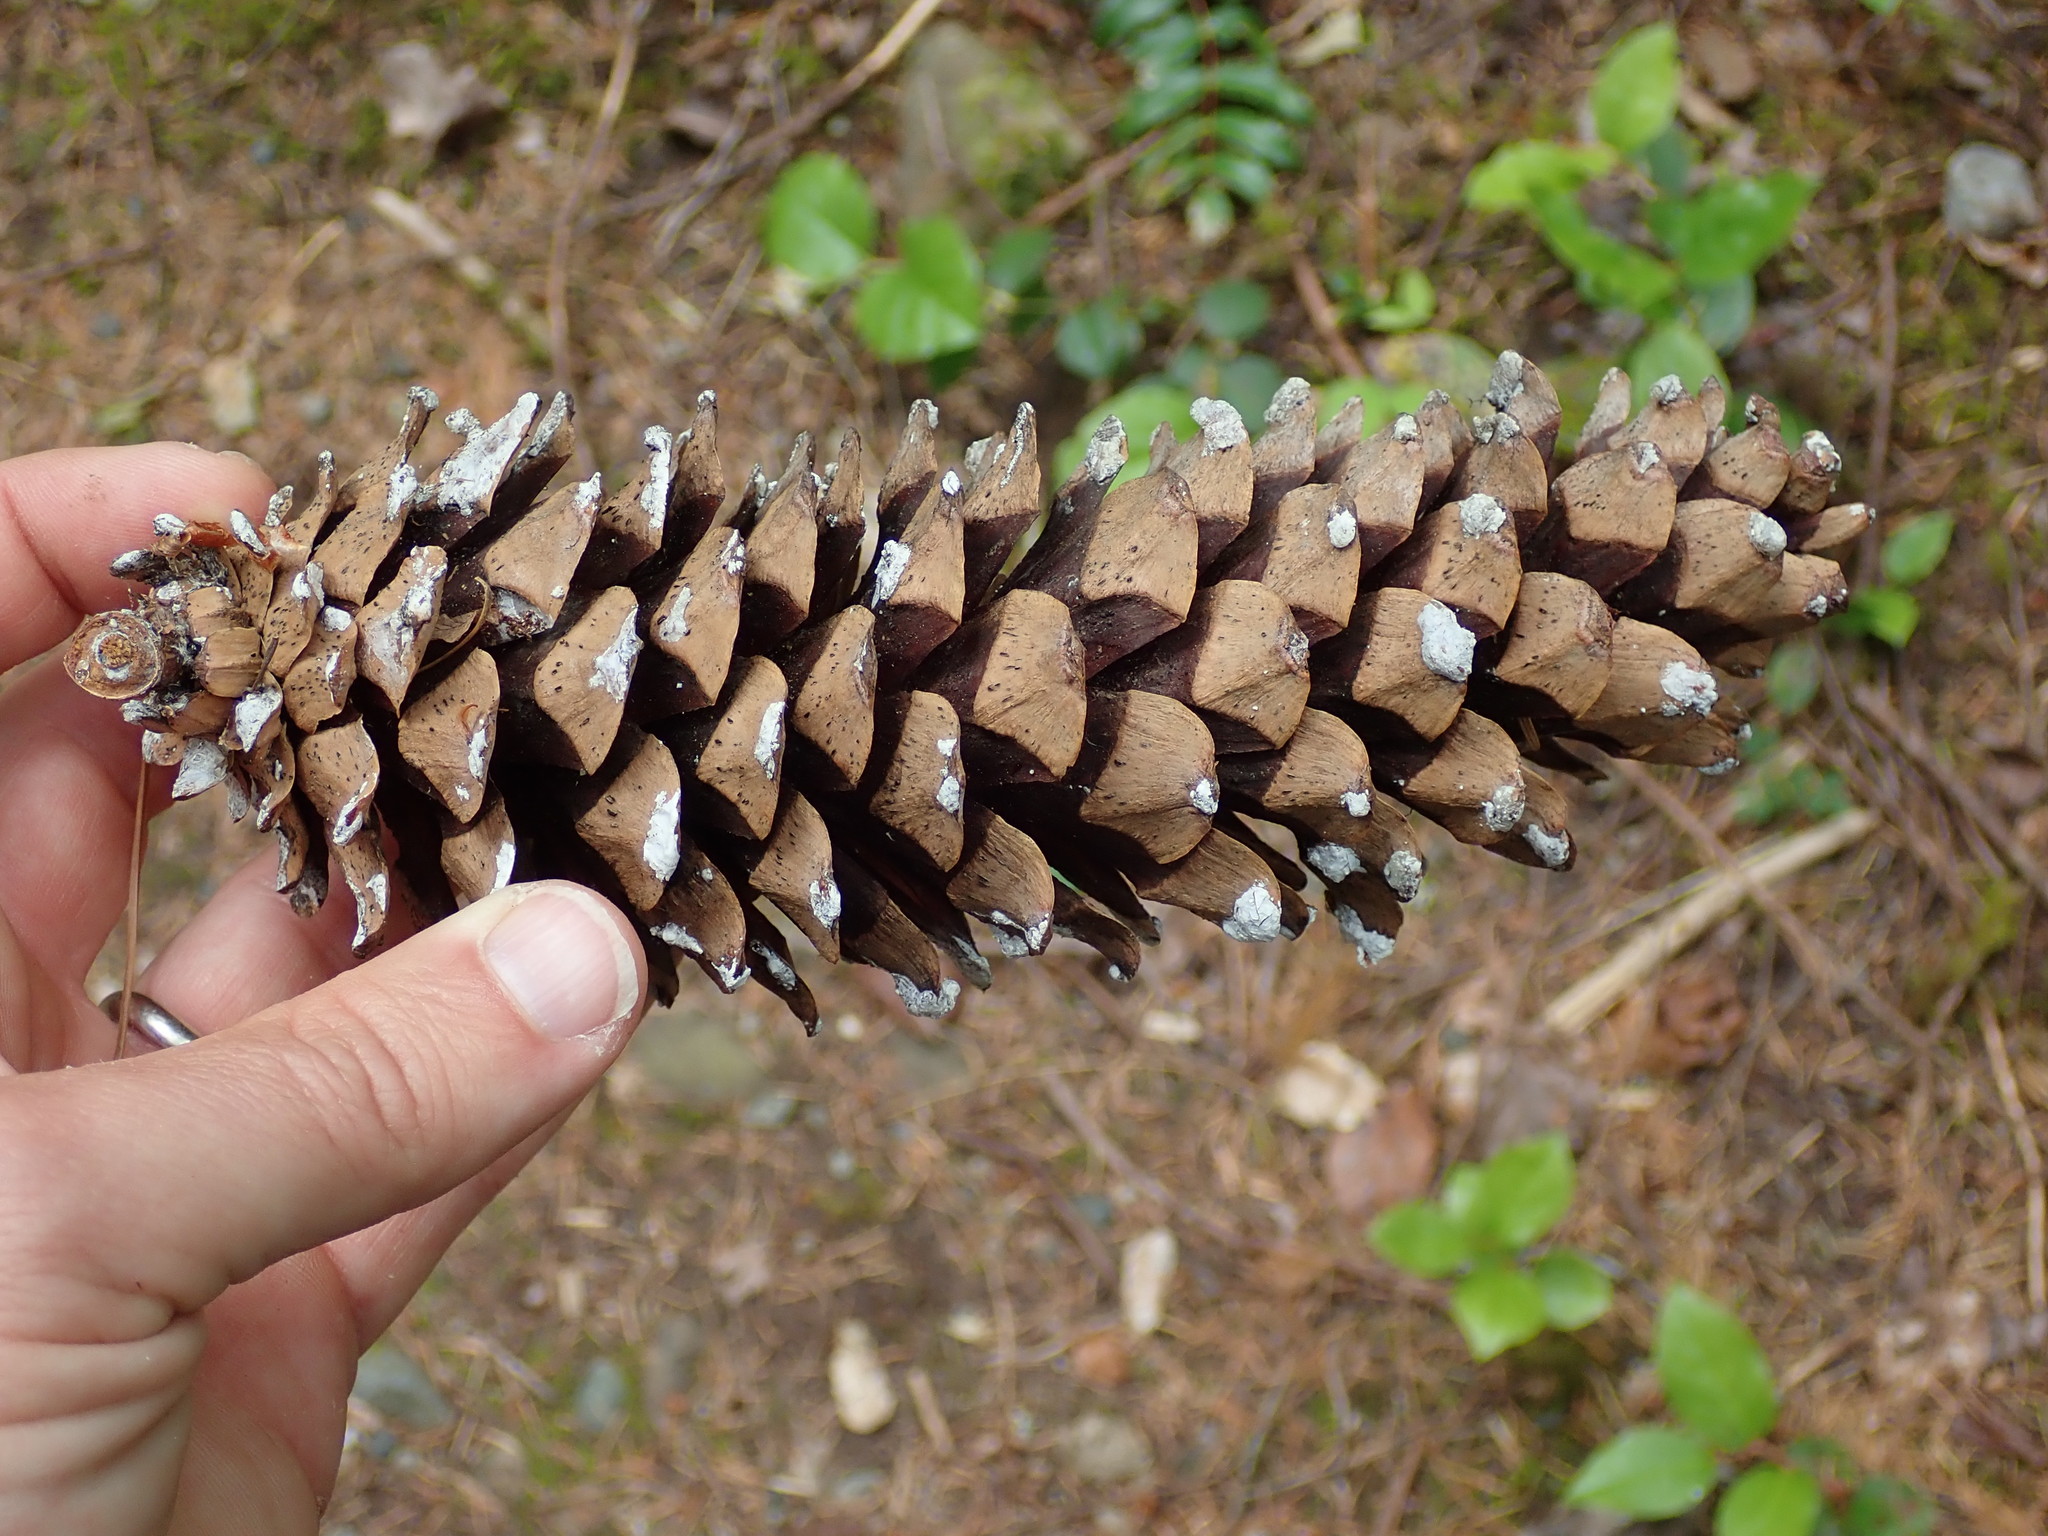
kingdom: Plantae
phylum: Tracheophyta
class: Pinopsida
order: Pinales
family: Pinaceae
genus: Pinus
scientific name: Pinus monticola
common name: Western white pine
